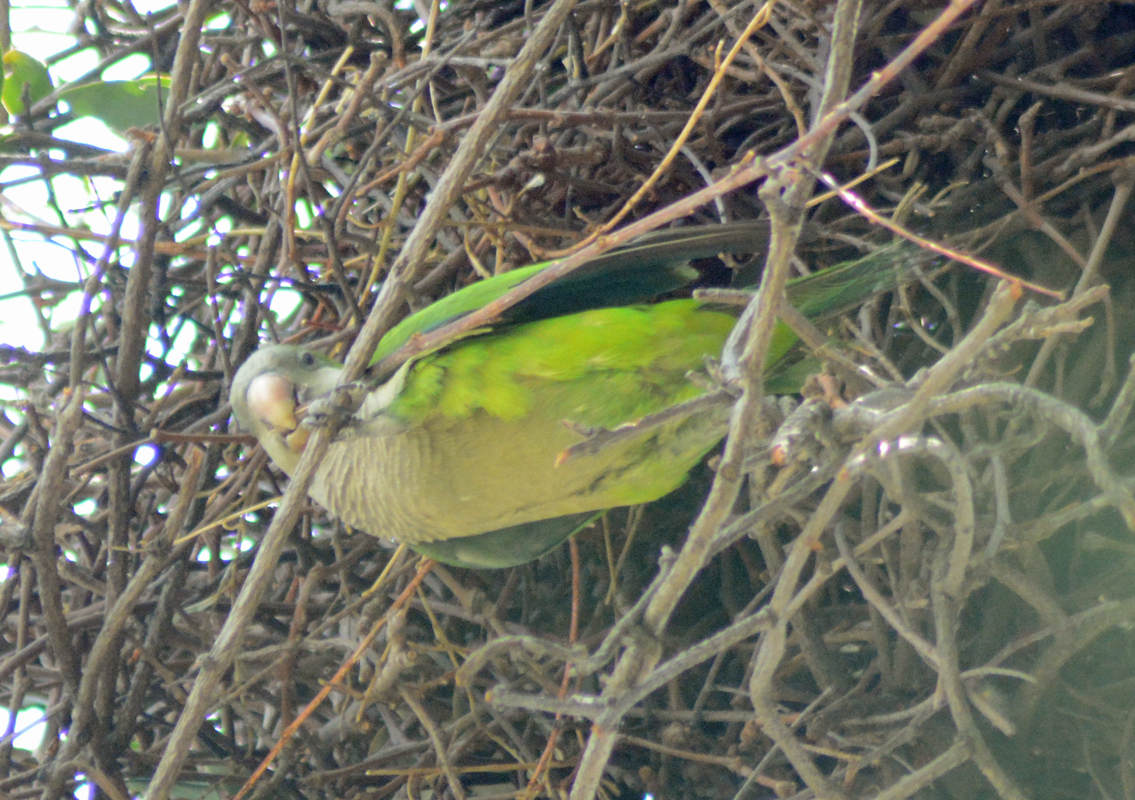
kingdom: Animalia
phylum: Chordata
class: Aves
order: Psittaciformes
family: Psittacidae
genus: Myiopsitta
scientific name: Myiopsitta monachus
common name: Monk parakeet
